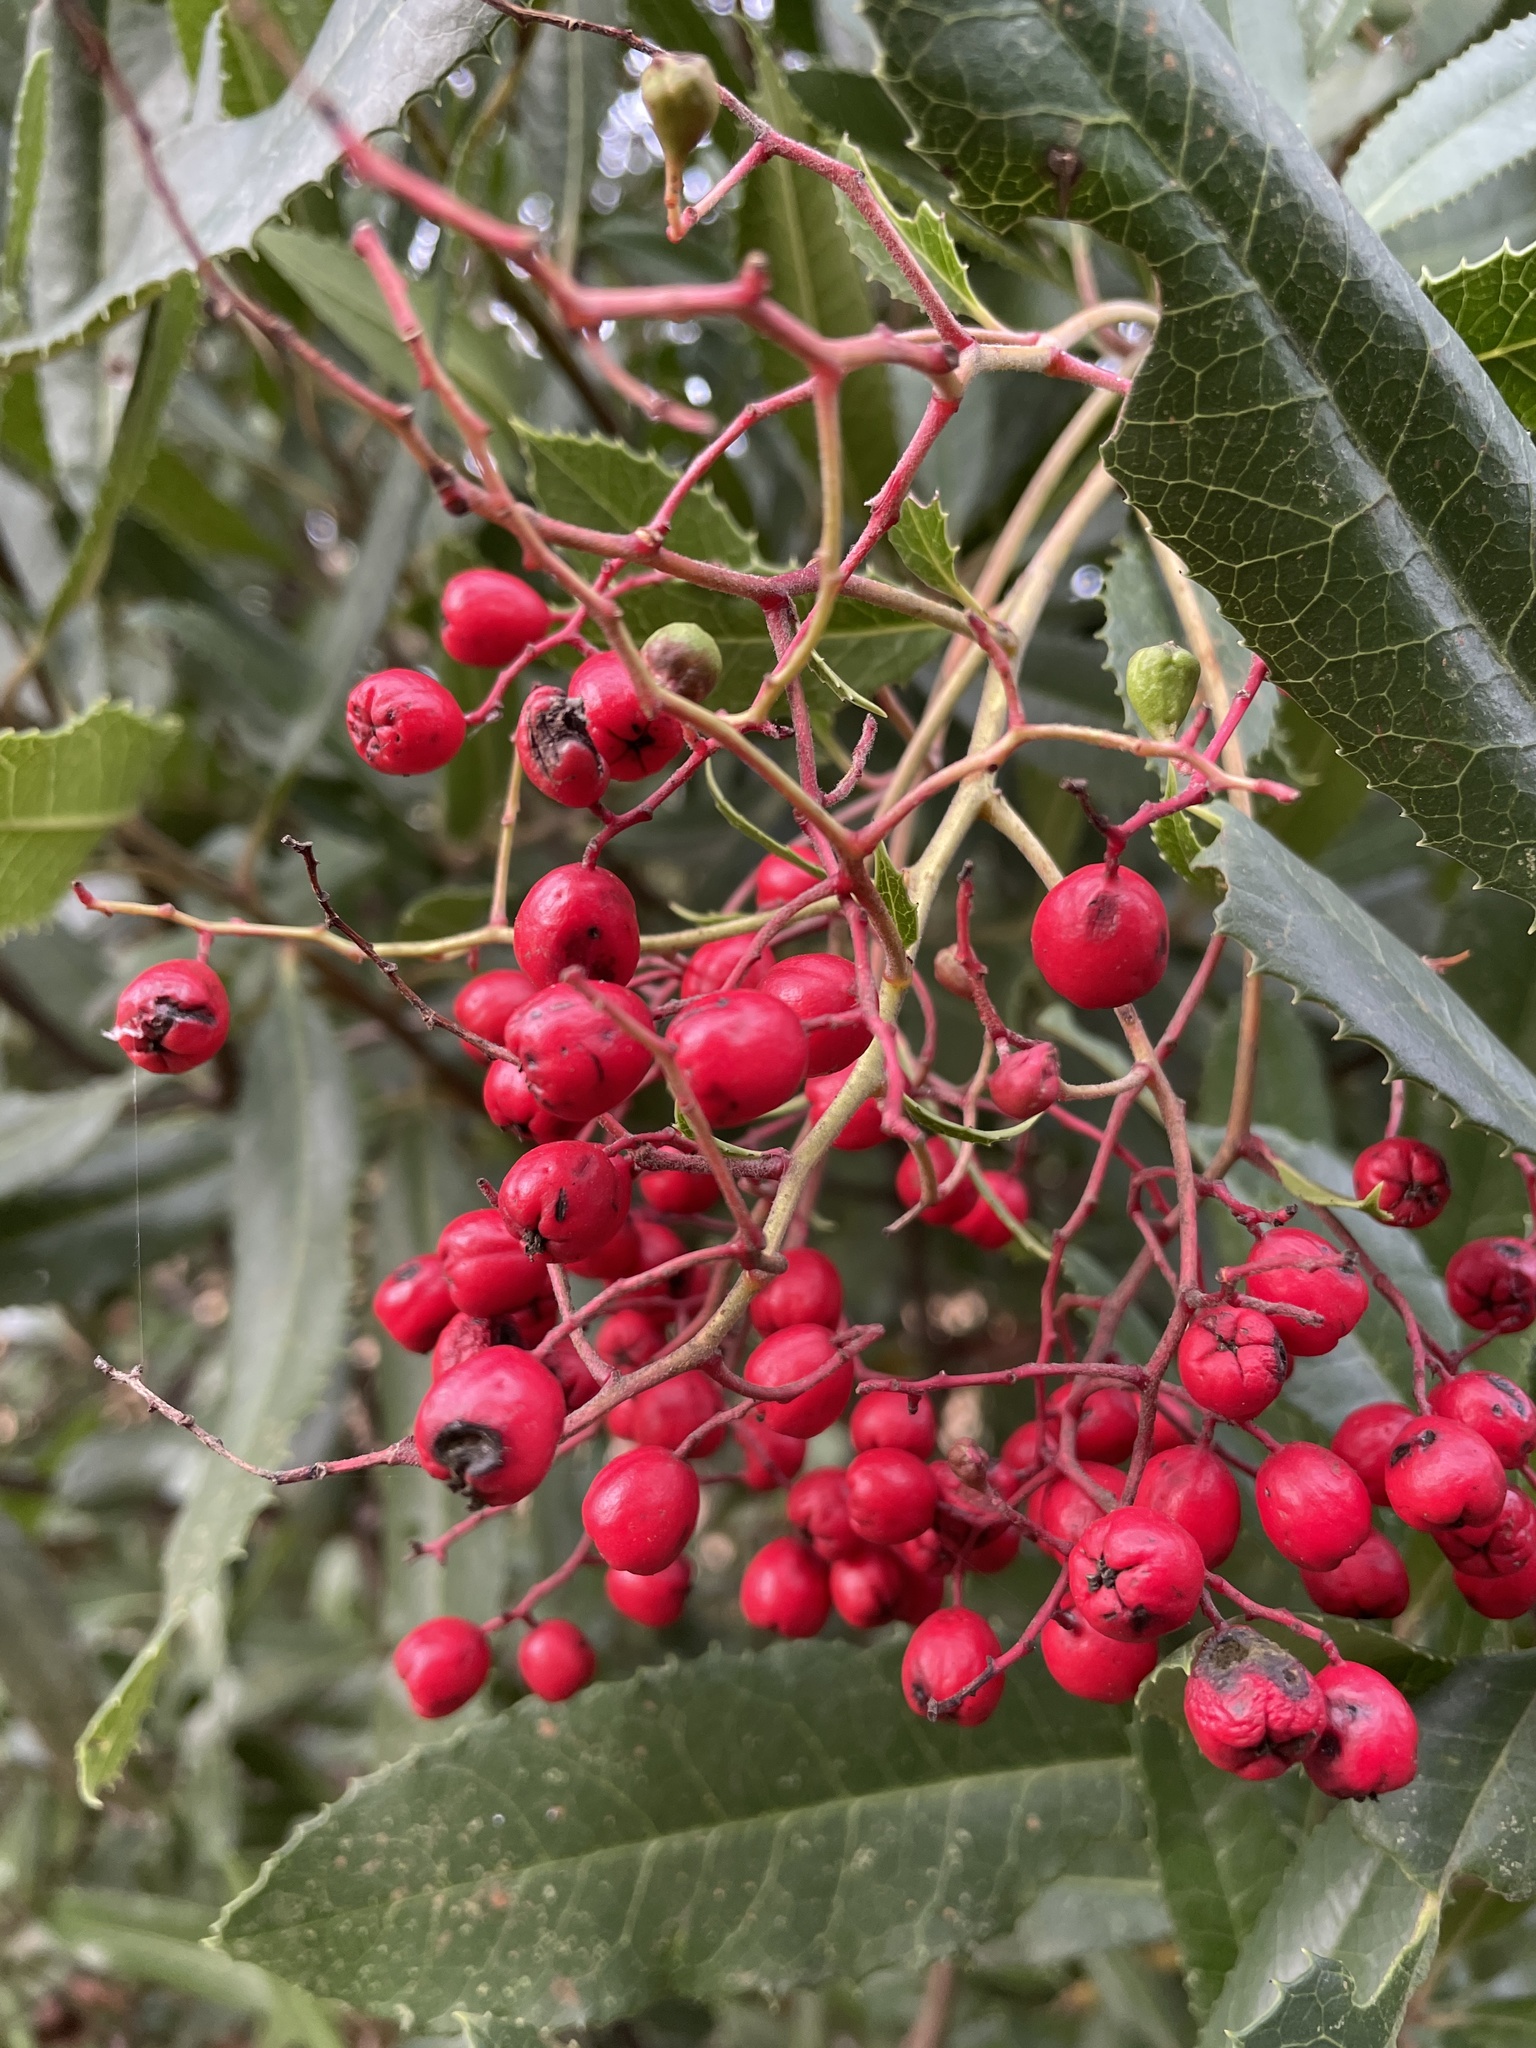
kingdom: Plantae
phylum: Tracheophyta
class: Magnoliopsida
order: Rosales
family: Rosaceae
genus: Heteromeles
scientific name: Heteromeles arbutifolia
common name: California-holly
